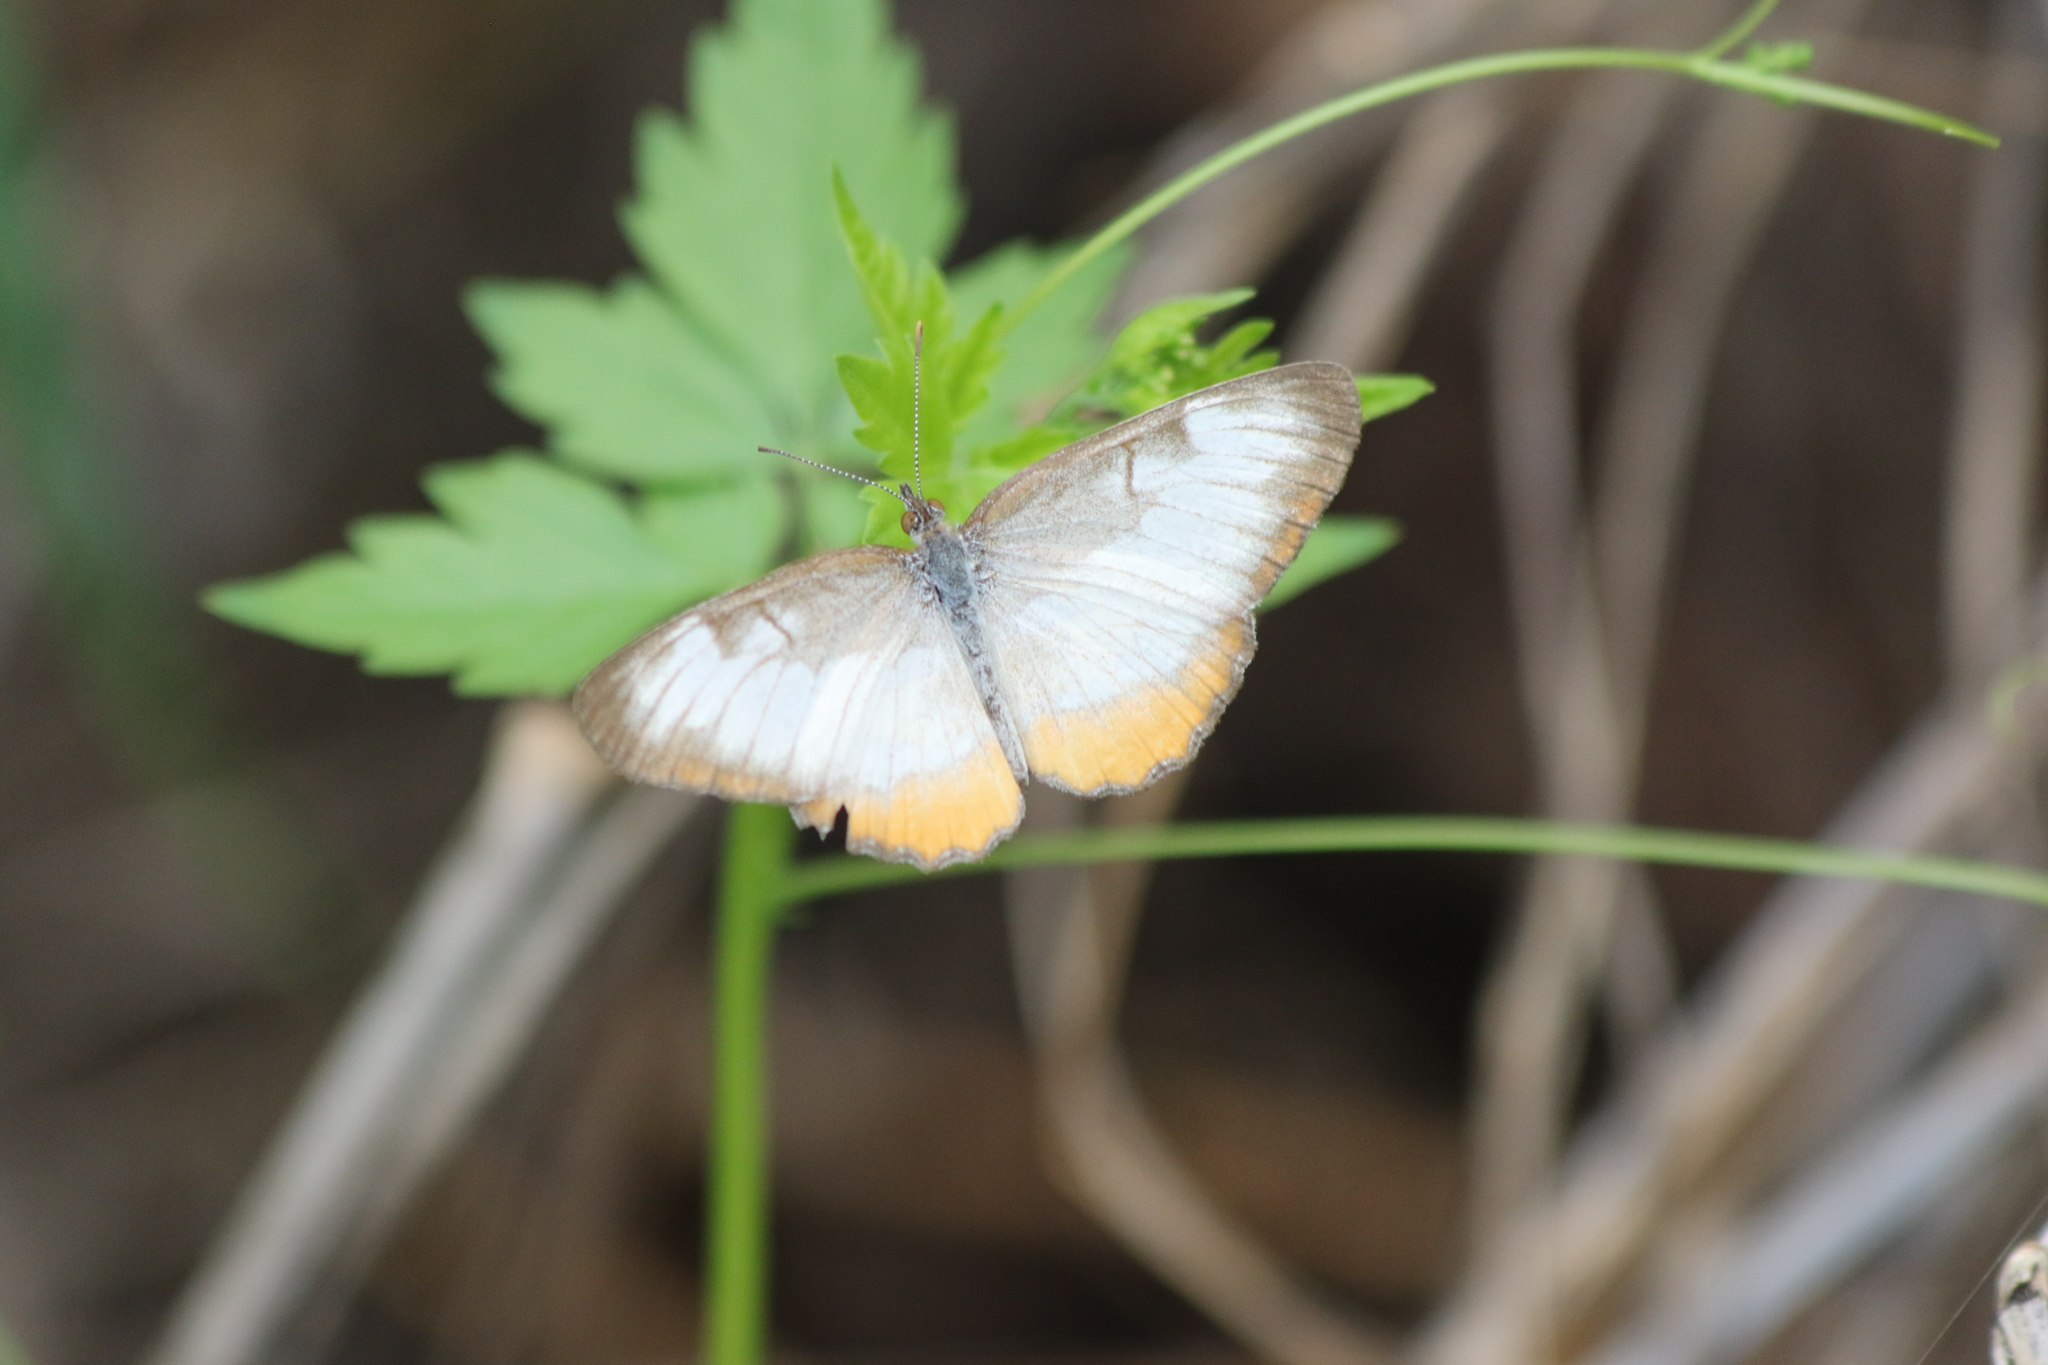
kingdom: Animalia
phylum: Arthropoda
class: Insecta
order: Lepidoptera
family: Nymphalidae
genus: Mestra
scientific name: Mestra amymone
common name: Common mestra
